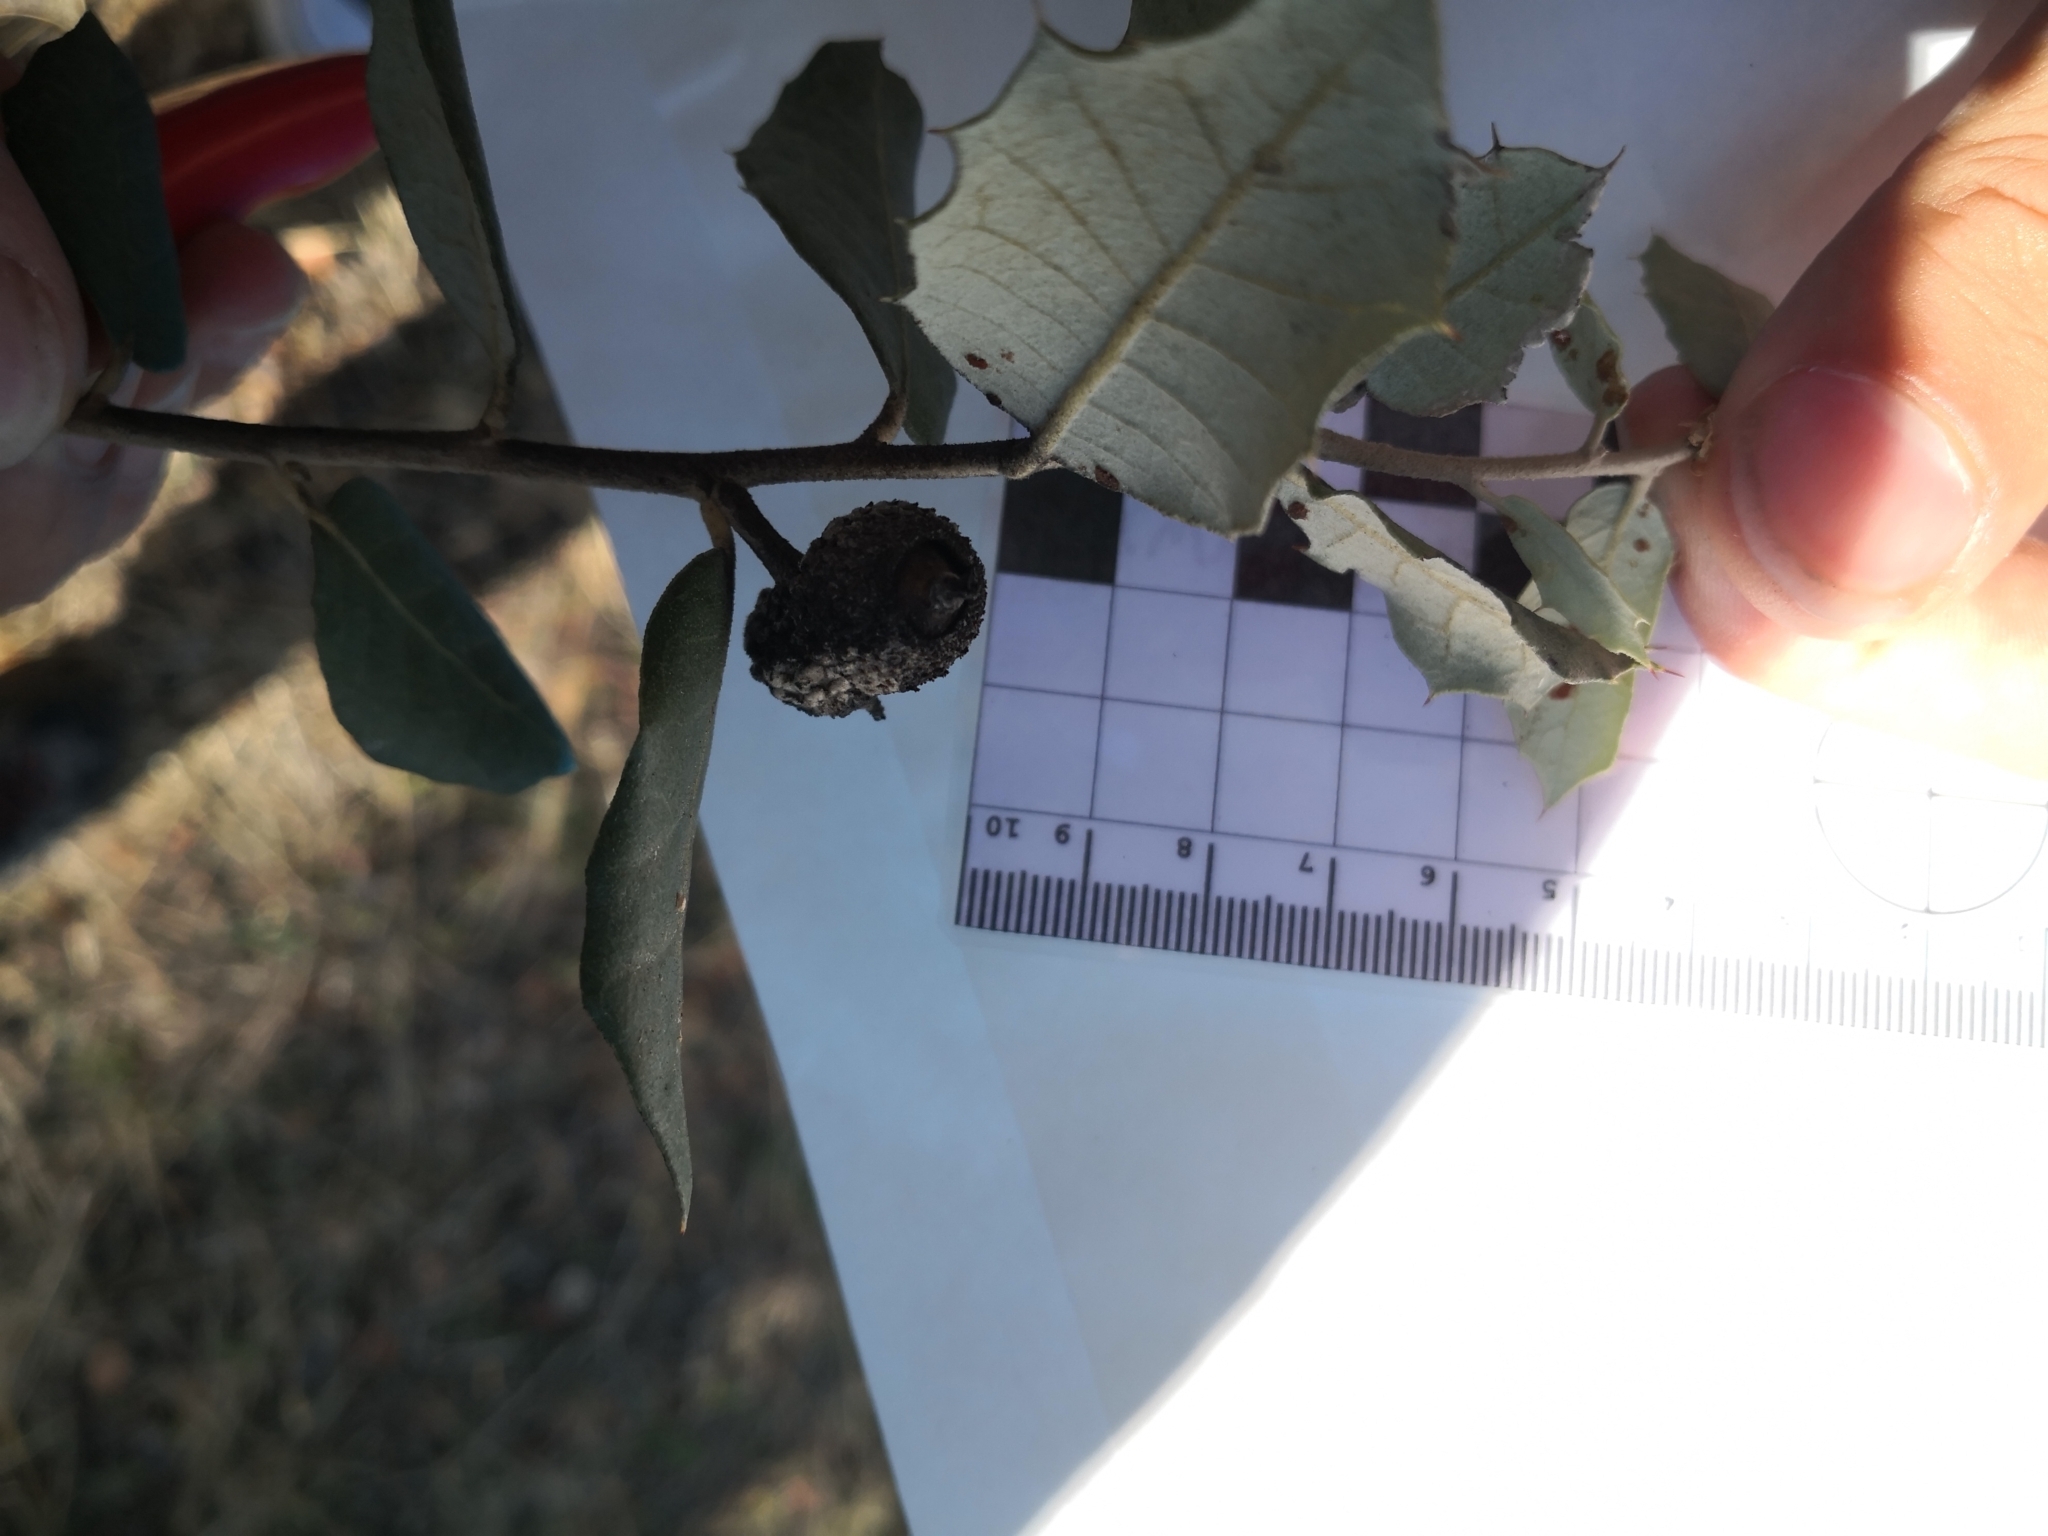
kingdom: Plantae
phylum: Tracheophyta
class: Magnoliopsida
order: Fagales
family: Fagaceae
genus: Quercus
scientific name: Quercus rotundifolia
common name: Holm oak
